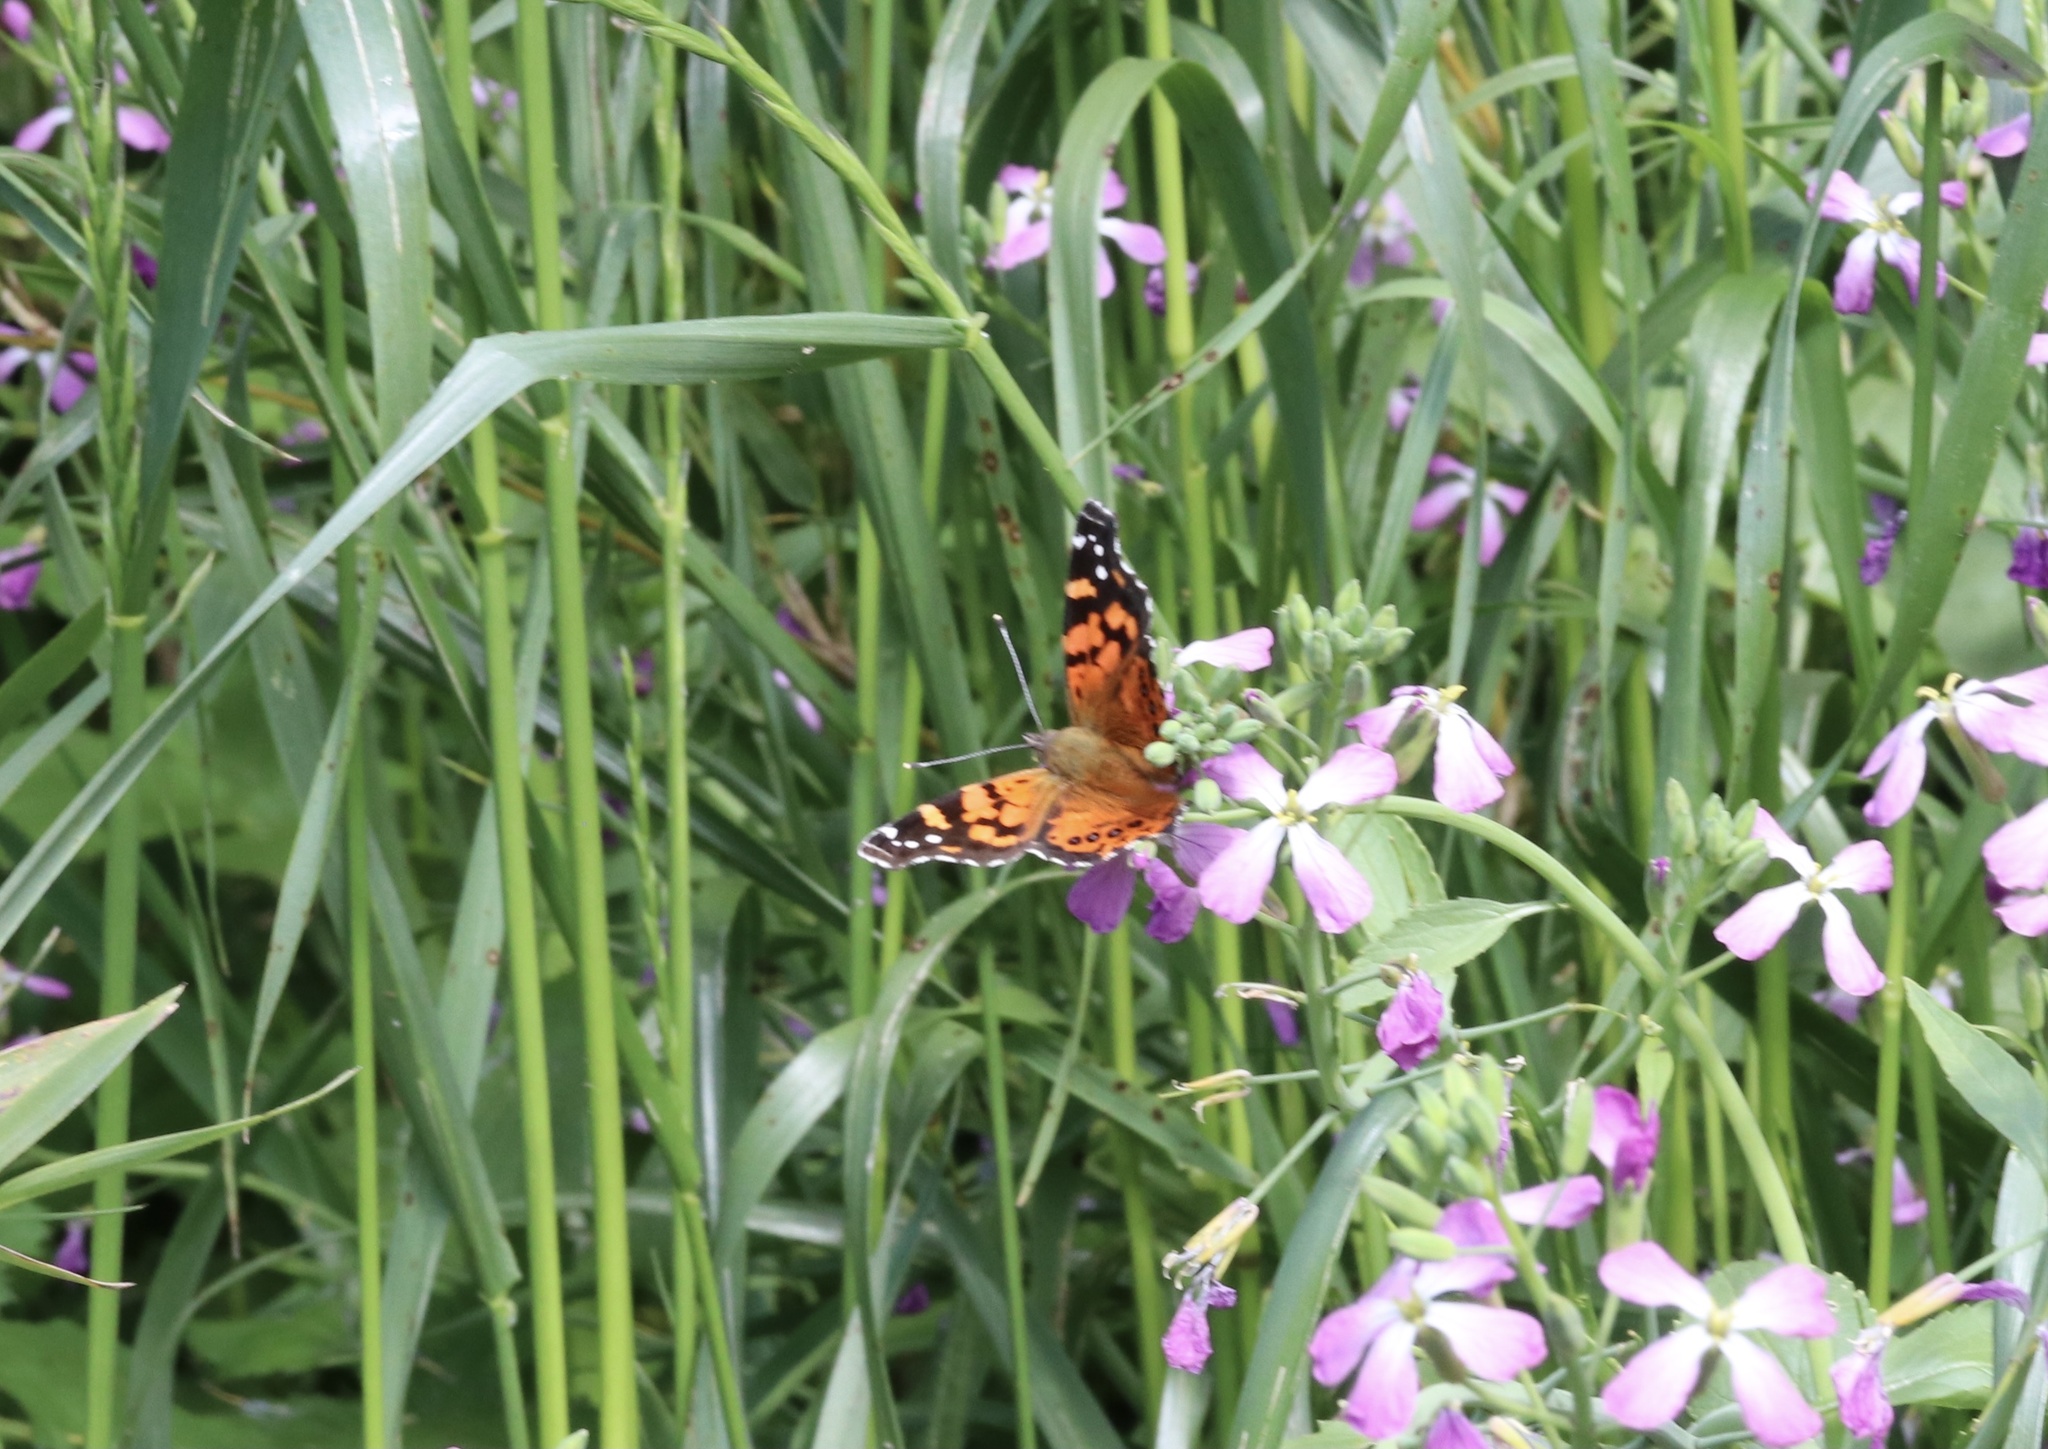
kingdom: Animalia
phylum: Arthropoda
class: Insecta
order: Lepidoptera
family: Nymphalidae
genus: Vanessa
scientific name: Vanessa carye
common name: Subtropical lady
